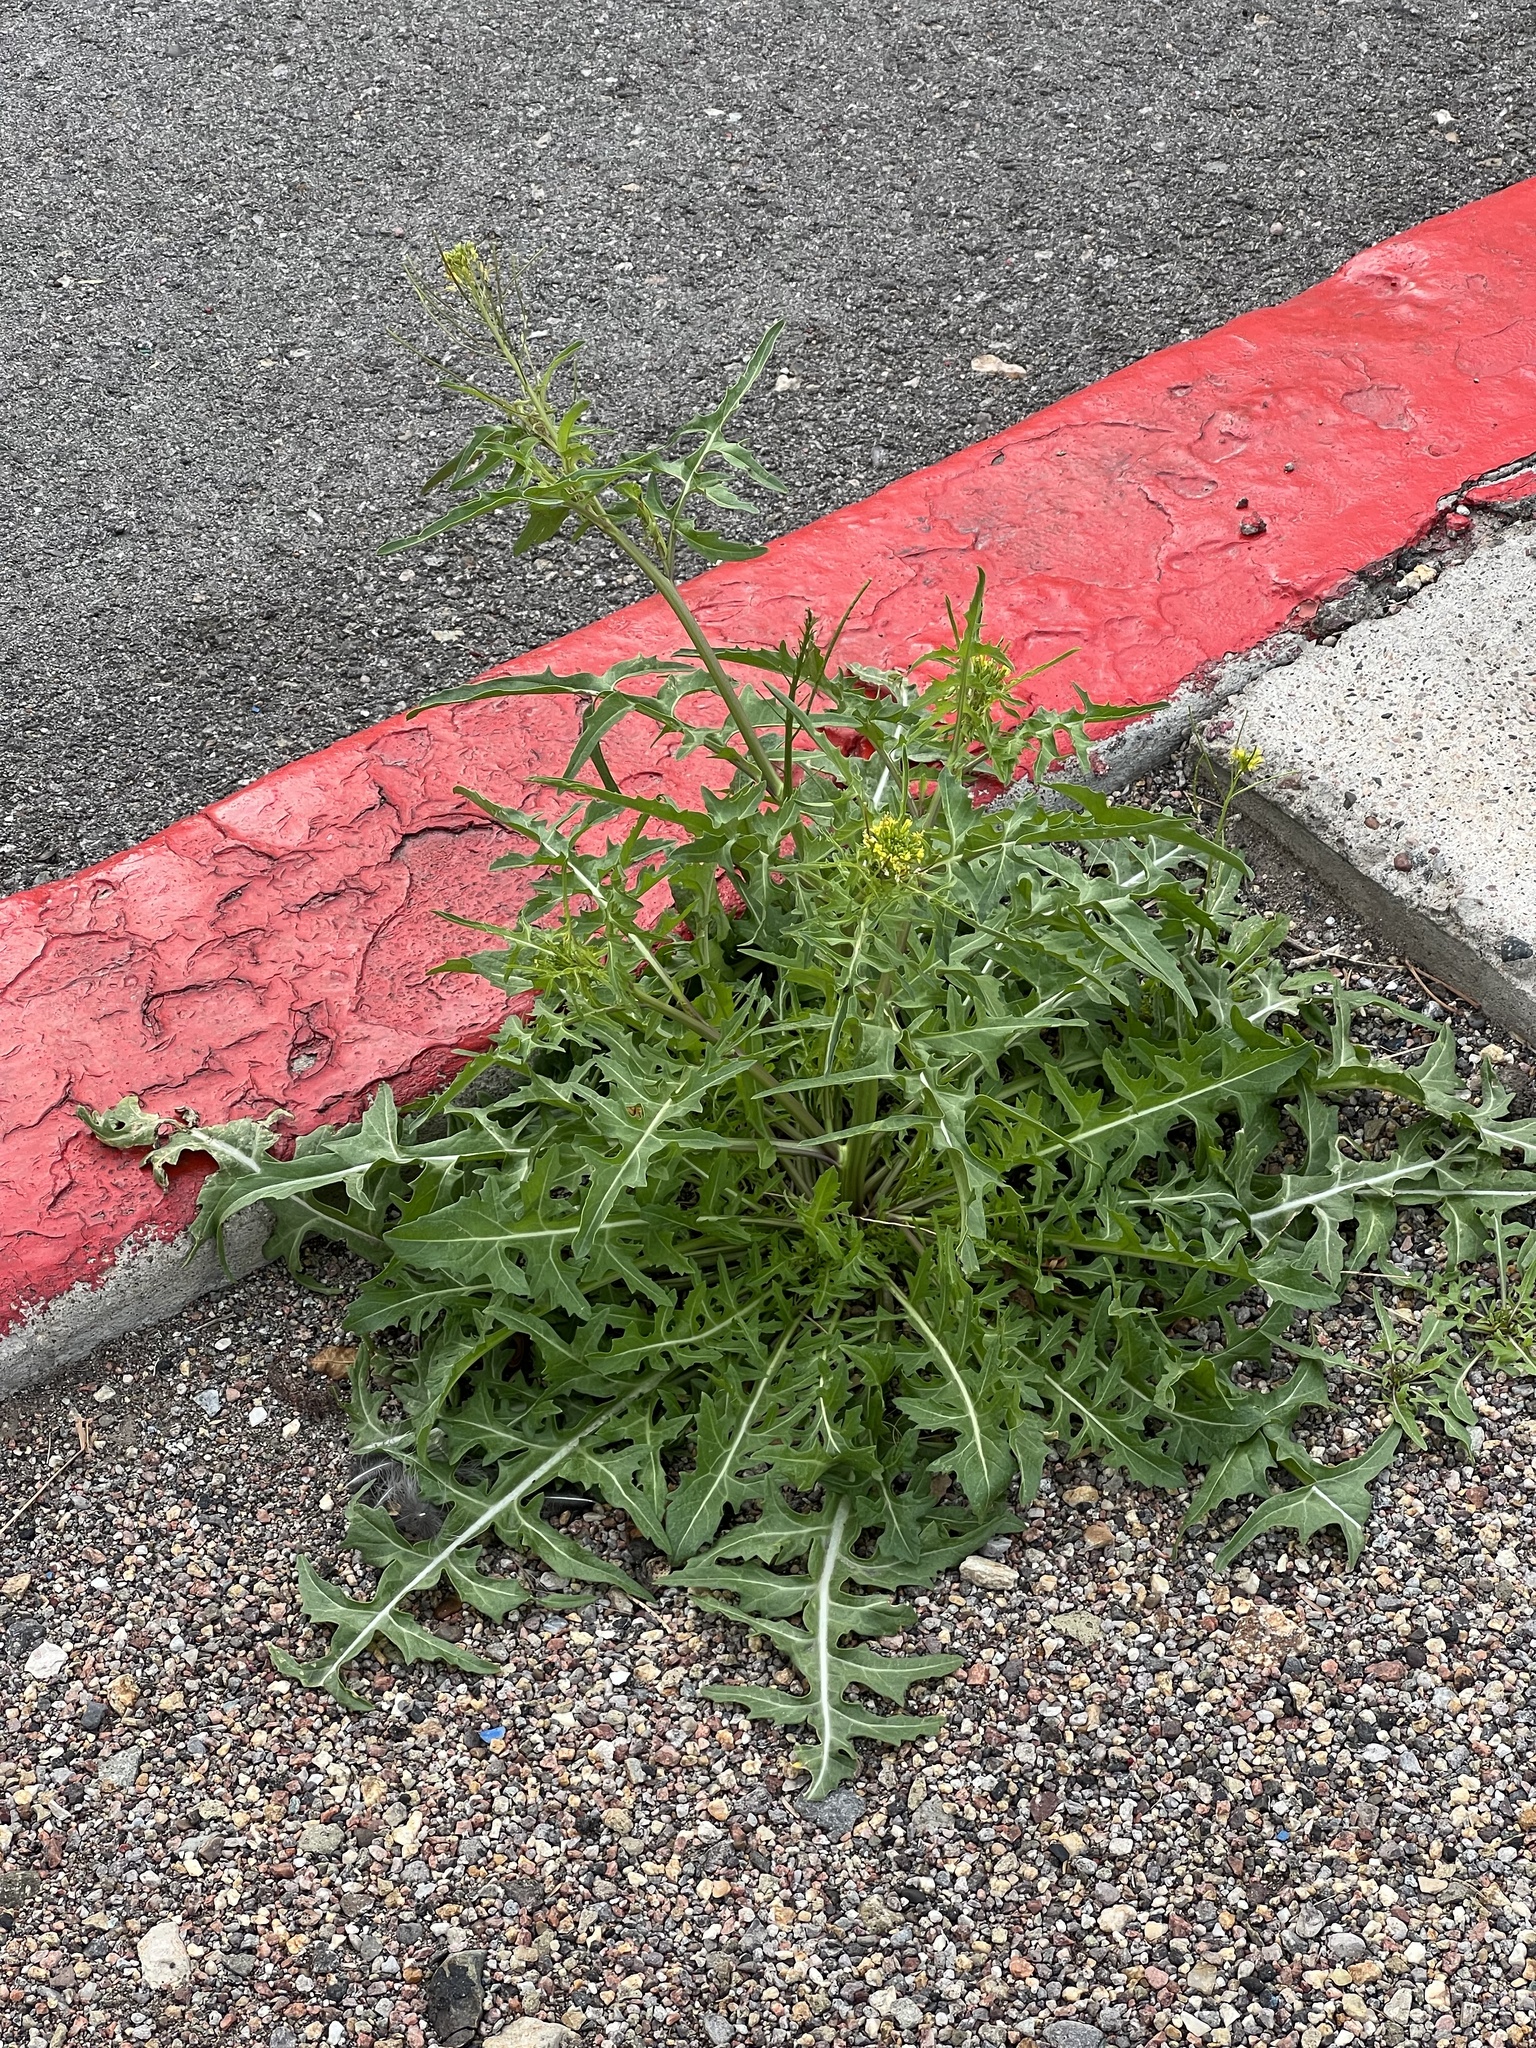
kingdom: Plantae
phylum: Tracheophyta
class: Magnoliopsida
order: Brassicales
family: Brassicaceae
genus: Sisymbrium
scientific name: Sisymbrium irio
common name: London rocket
